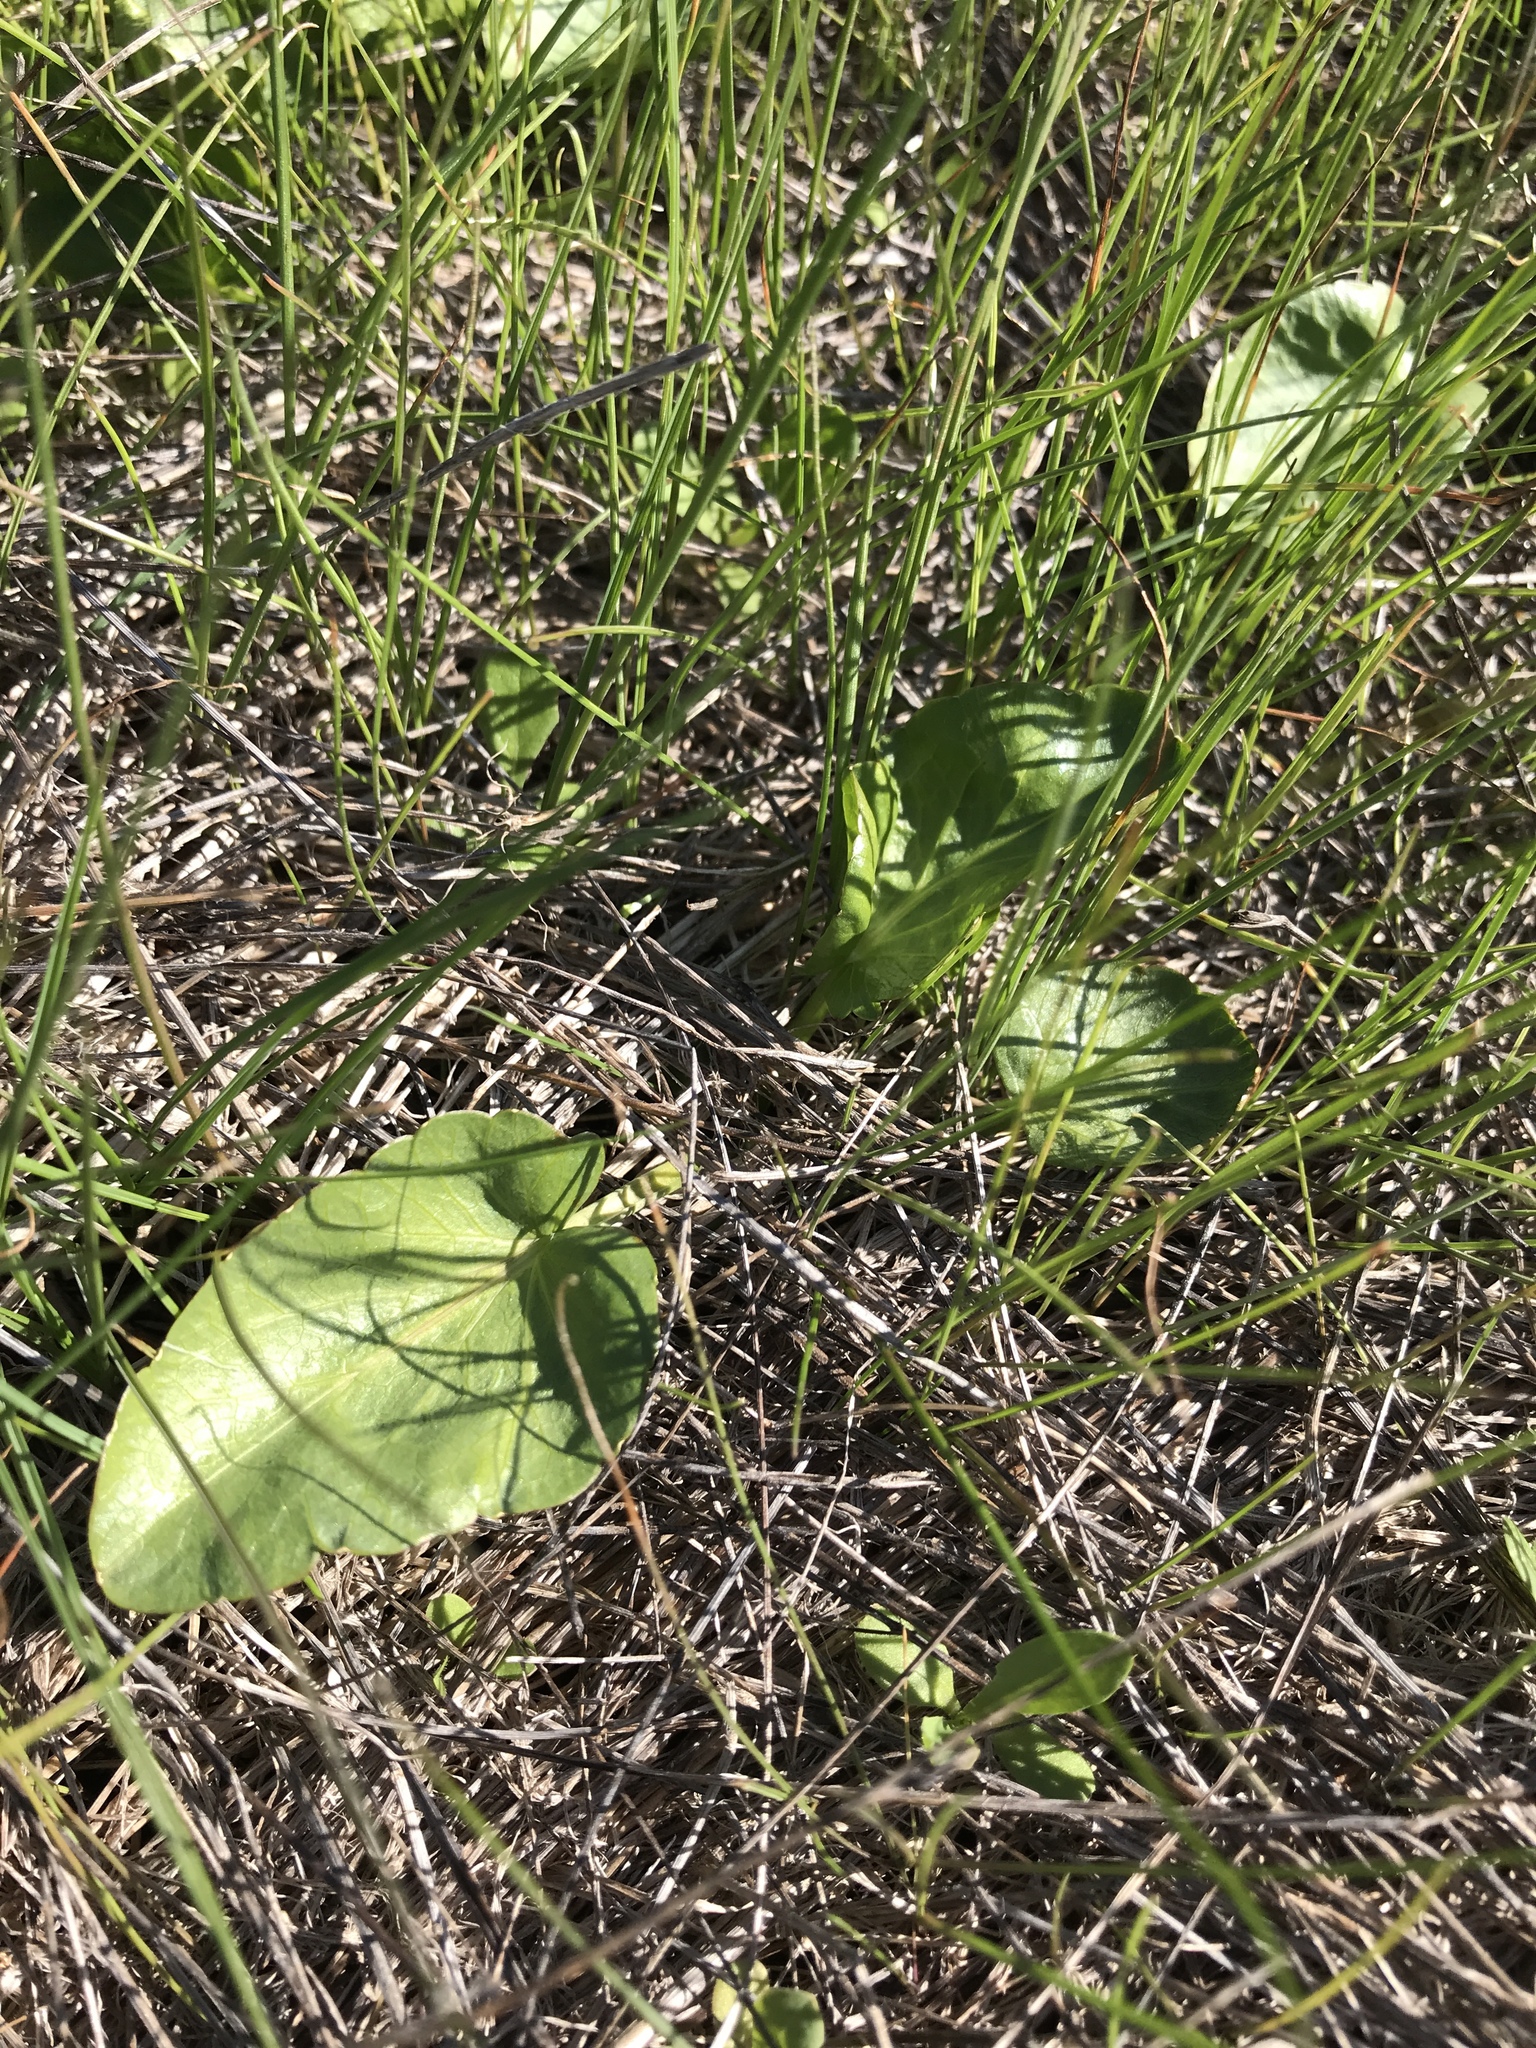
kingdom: Plantae
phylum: Tracheophyta
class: Magnoliopsida
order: Apiales
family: Apiaceae
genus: Sanicula
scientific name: Sanicula maritima
